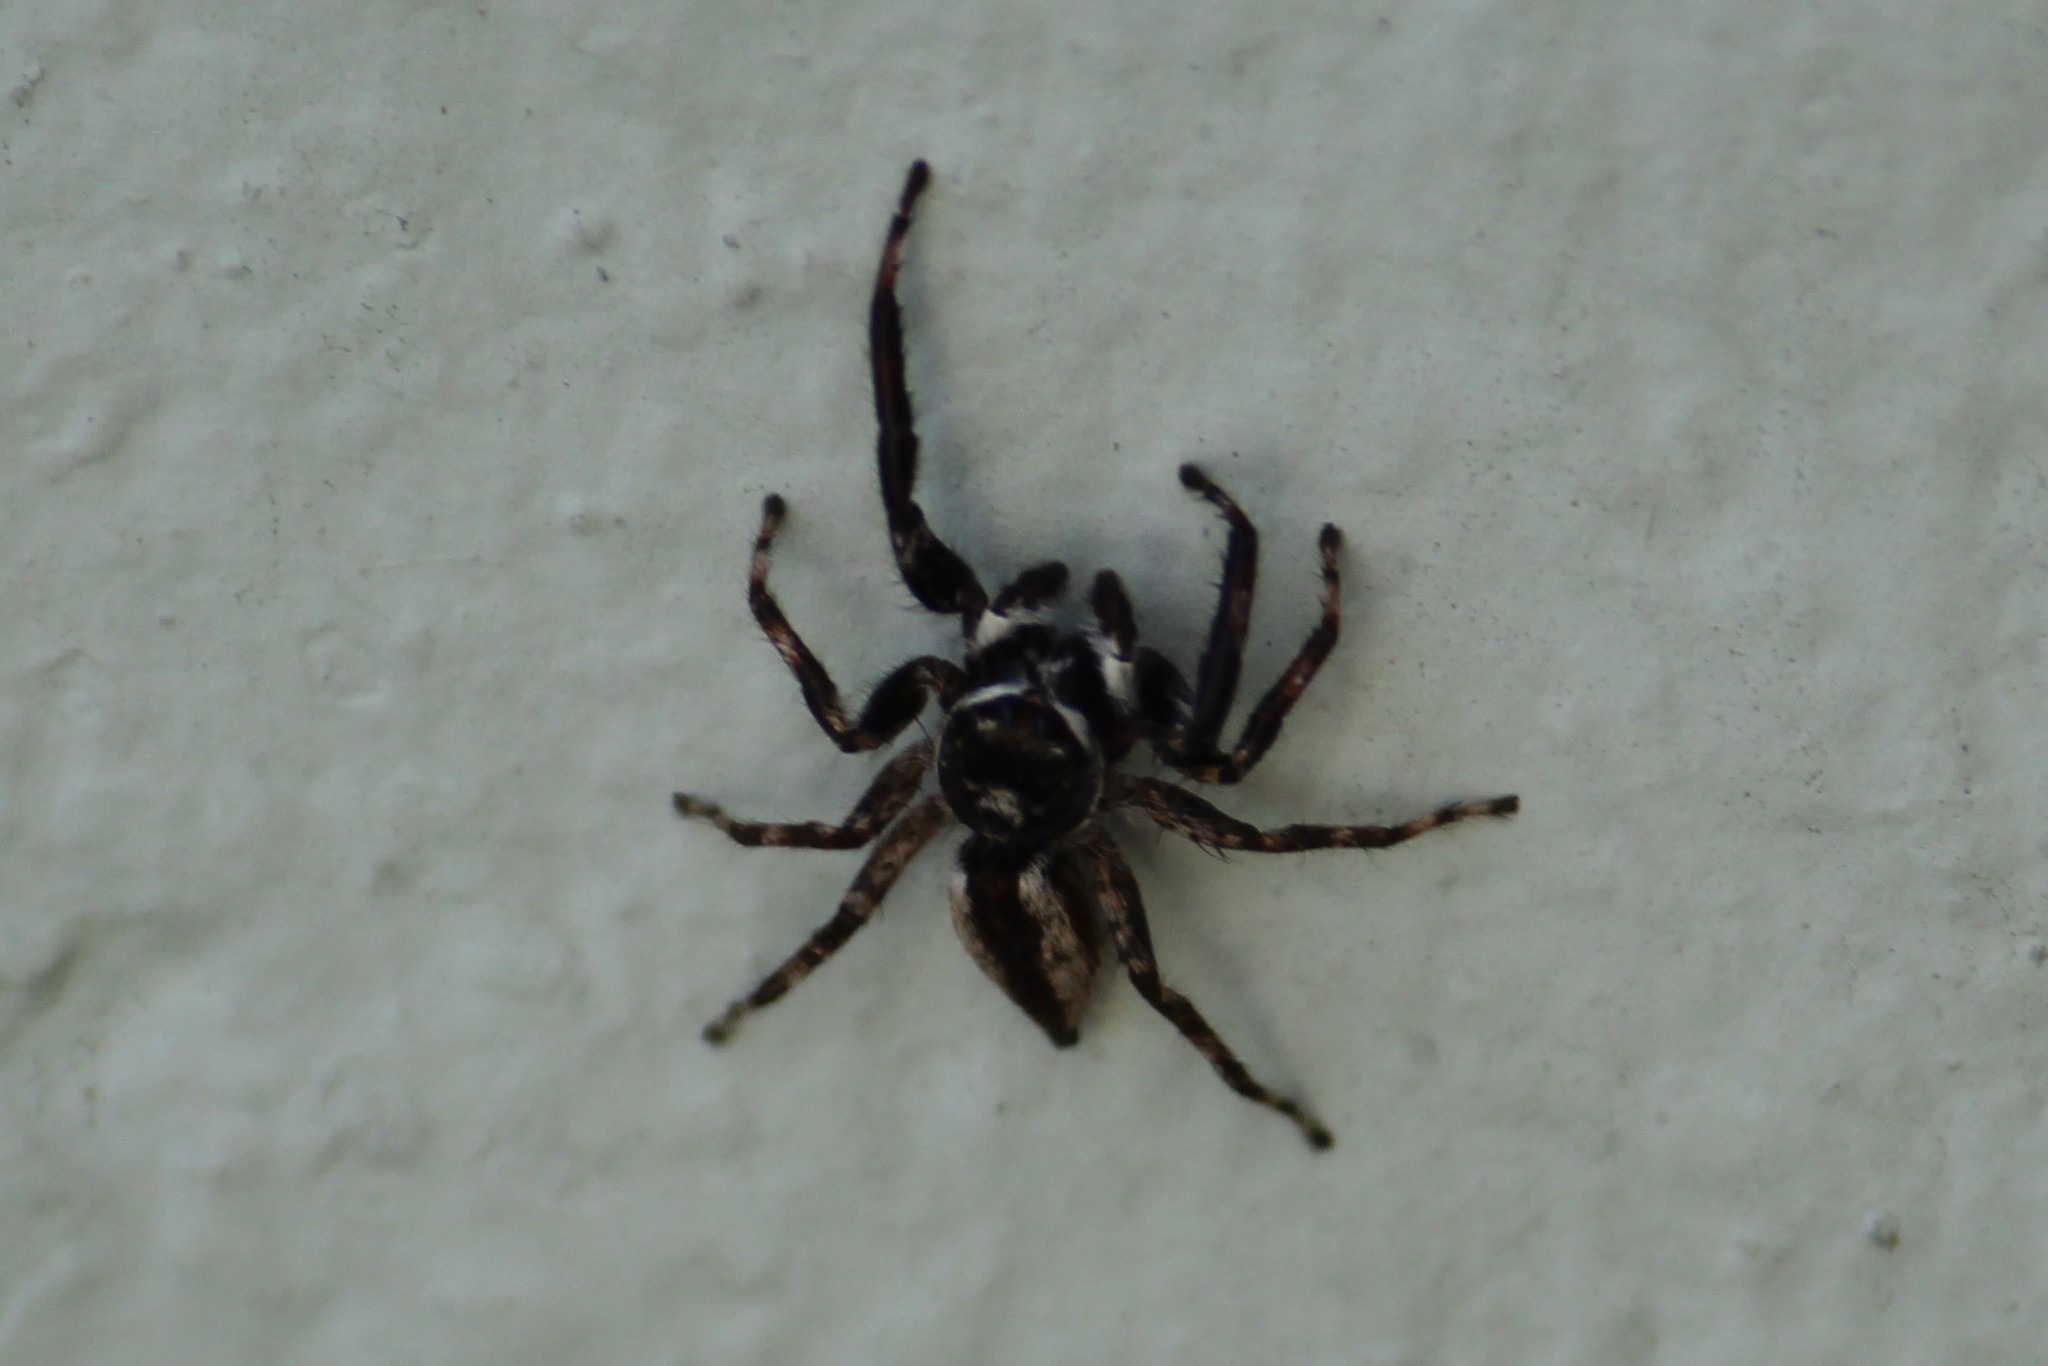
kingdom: Animalia
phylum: Arthropoda
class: Arachnida
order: Araneae
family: Salticidae
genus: Menemerus
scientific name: Menemerus bivittatus
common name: Gray wall jumper
